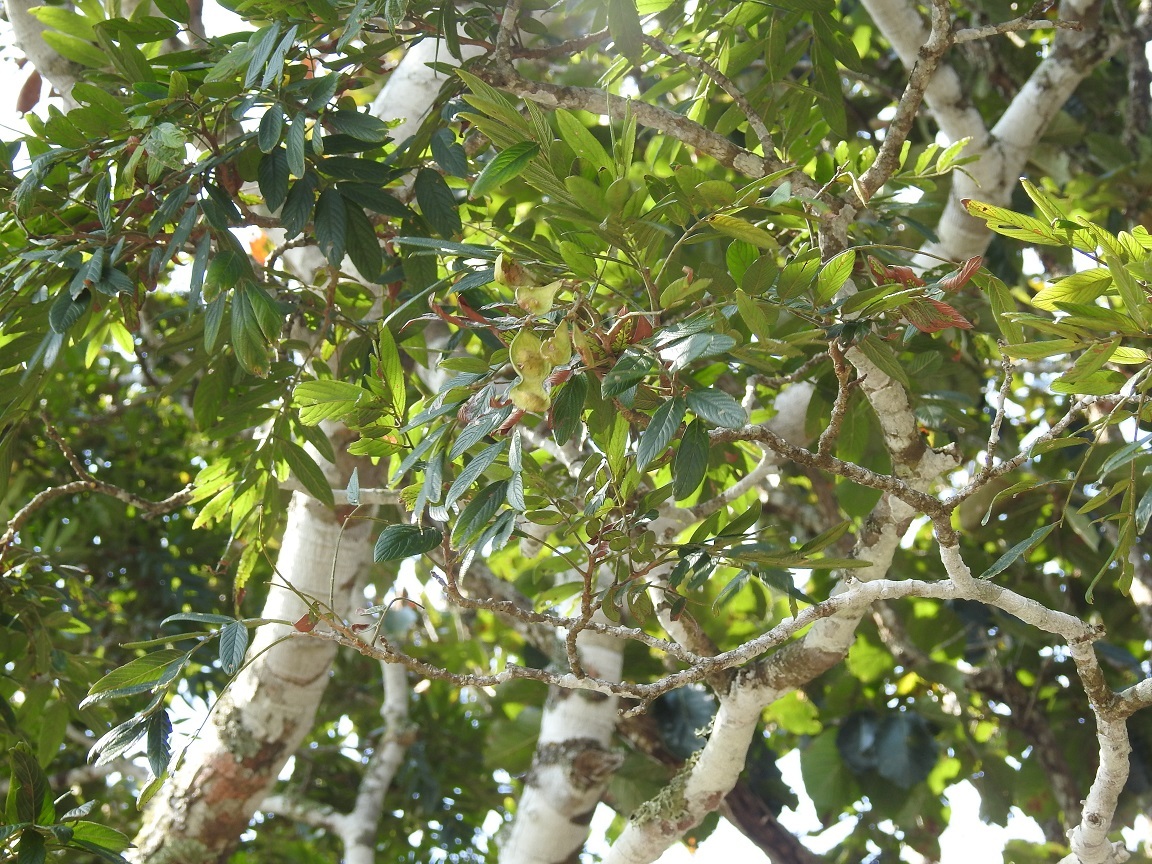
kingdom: Plantae
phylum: Tracheophyta
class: Magnoliopsida
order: Fabales
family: Fabaceae
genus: Lonchocarpus
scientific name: Lonchocarpus rugosus
